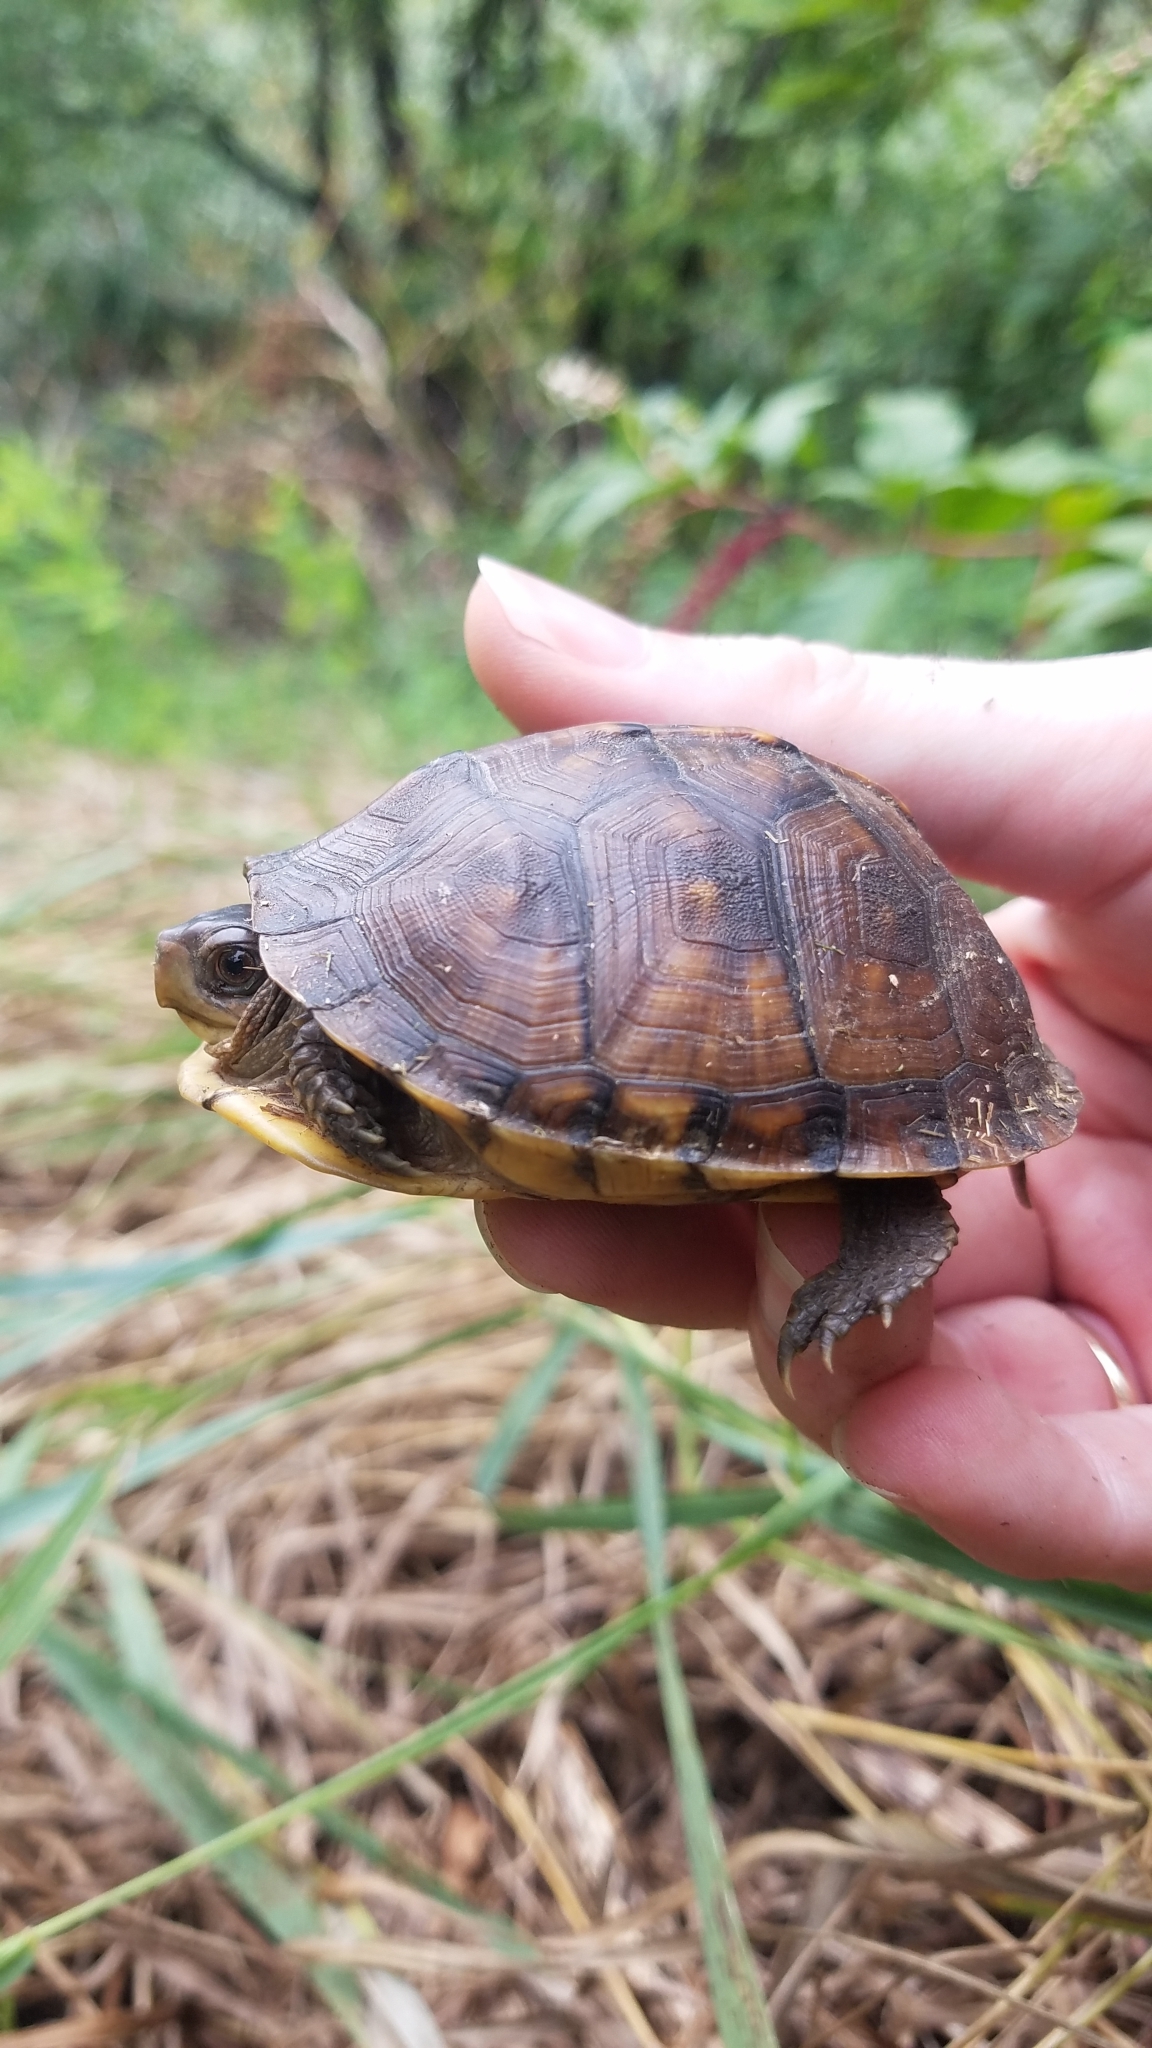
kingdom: Animalia
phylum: Chordata
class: Testudines
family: Emydidae
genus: Terrapene
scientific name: Terrapene carolina
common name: Common box turtle
